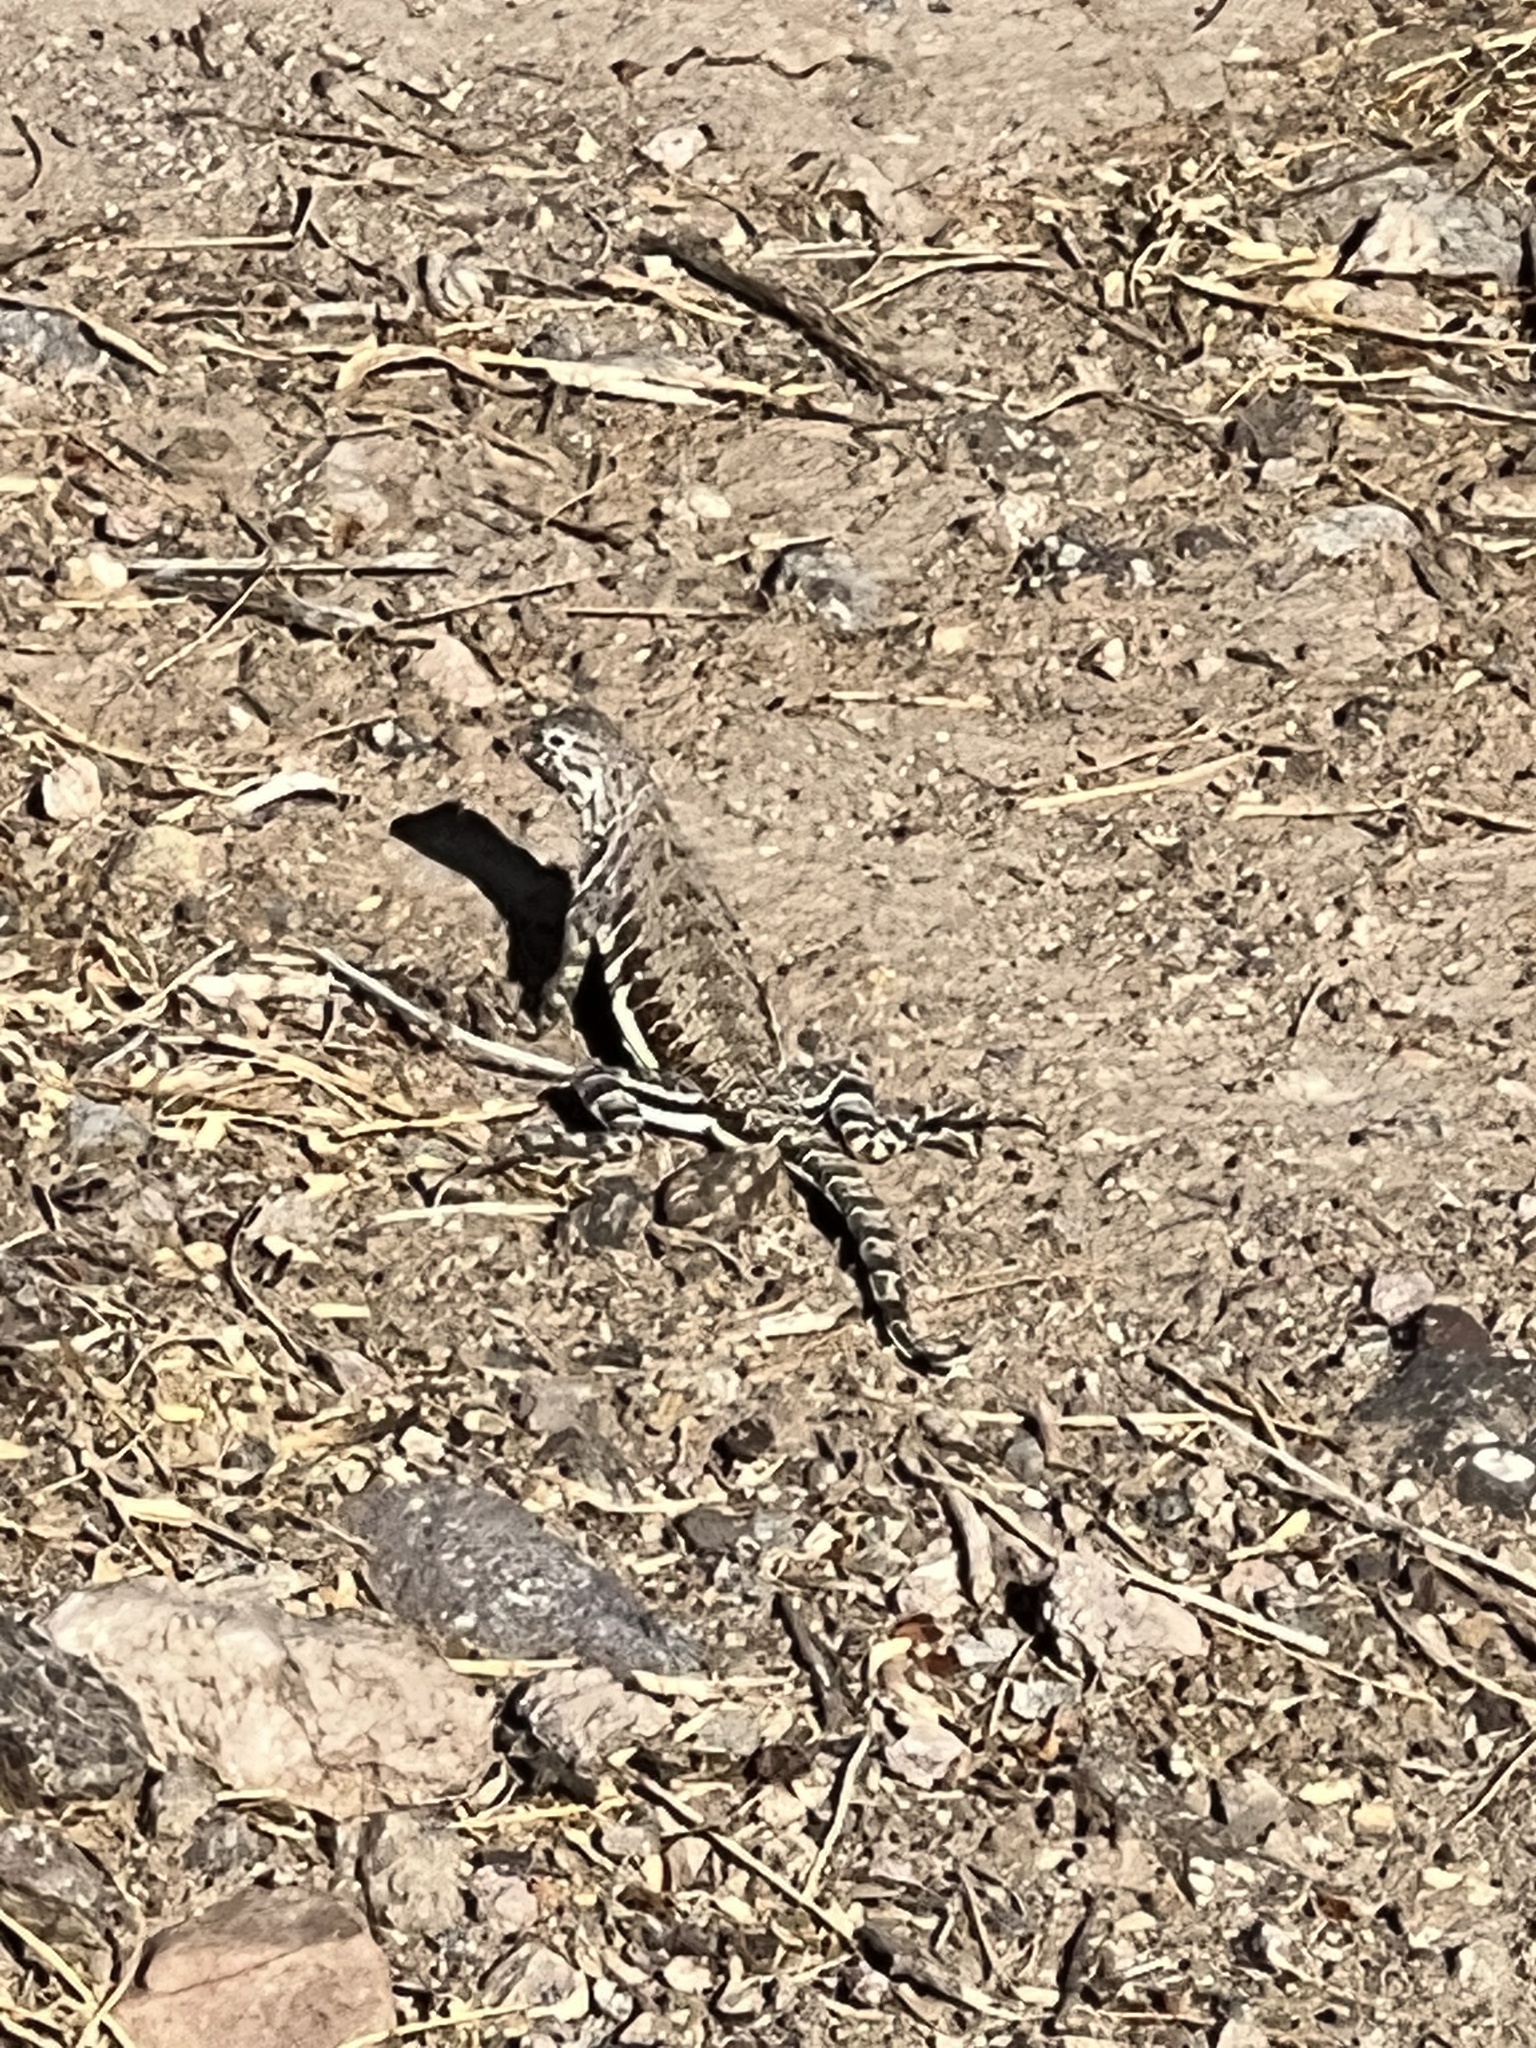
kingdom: Animalia
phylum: Chordata
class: Squamata
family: Phrynosomatidae
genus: Callisaurus
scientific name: Callisaurus draconoides
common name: Zebra-tailed lizard
